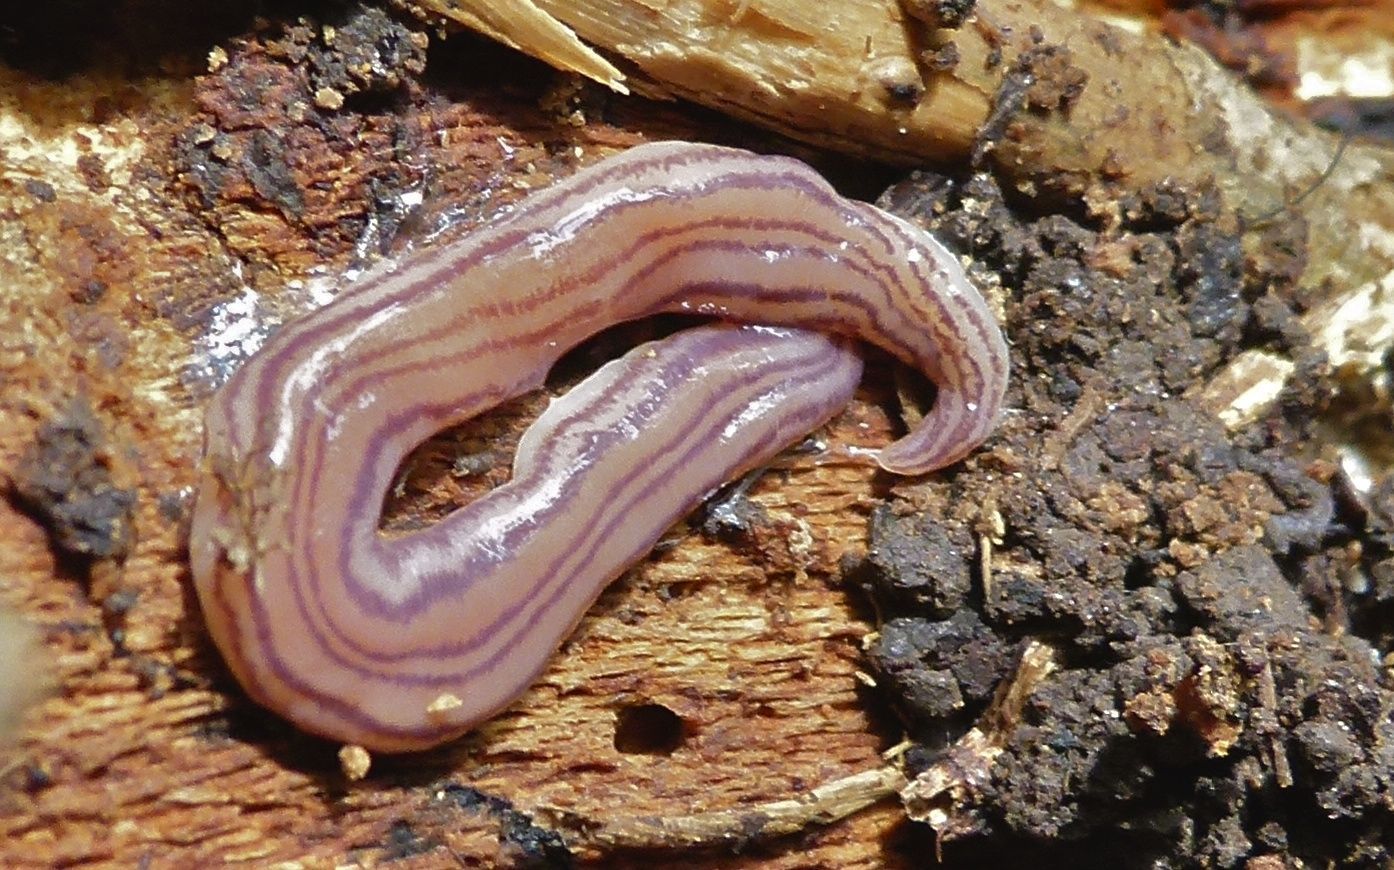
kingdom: Animalia
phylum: Platyhelminthes
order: Tricladida
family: Geoplanidae
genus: Artioposthia
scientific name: Artioposthia suteri
